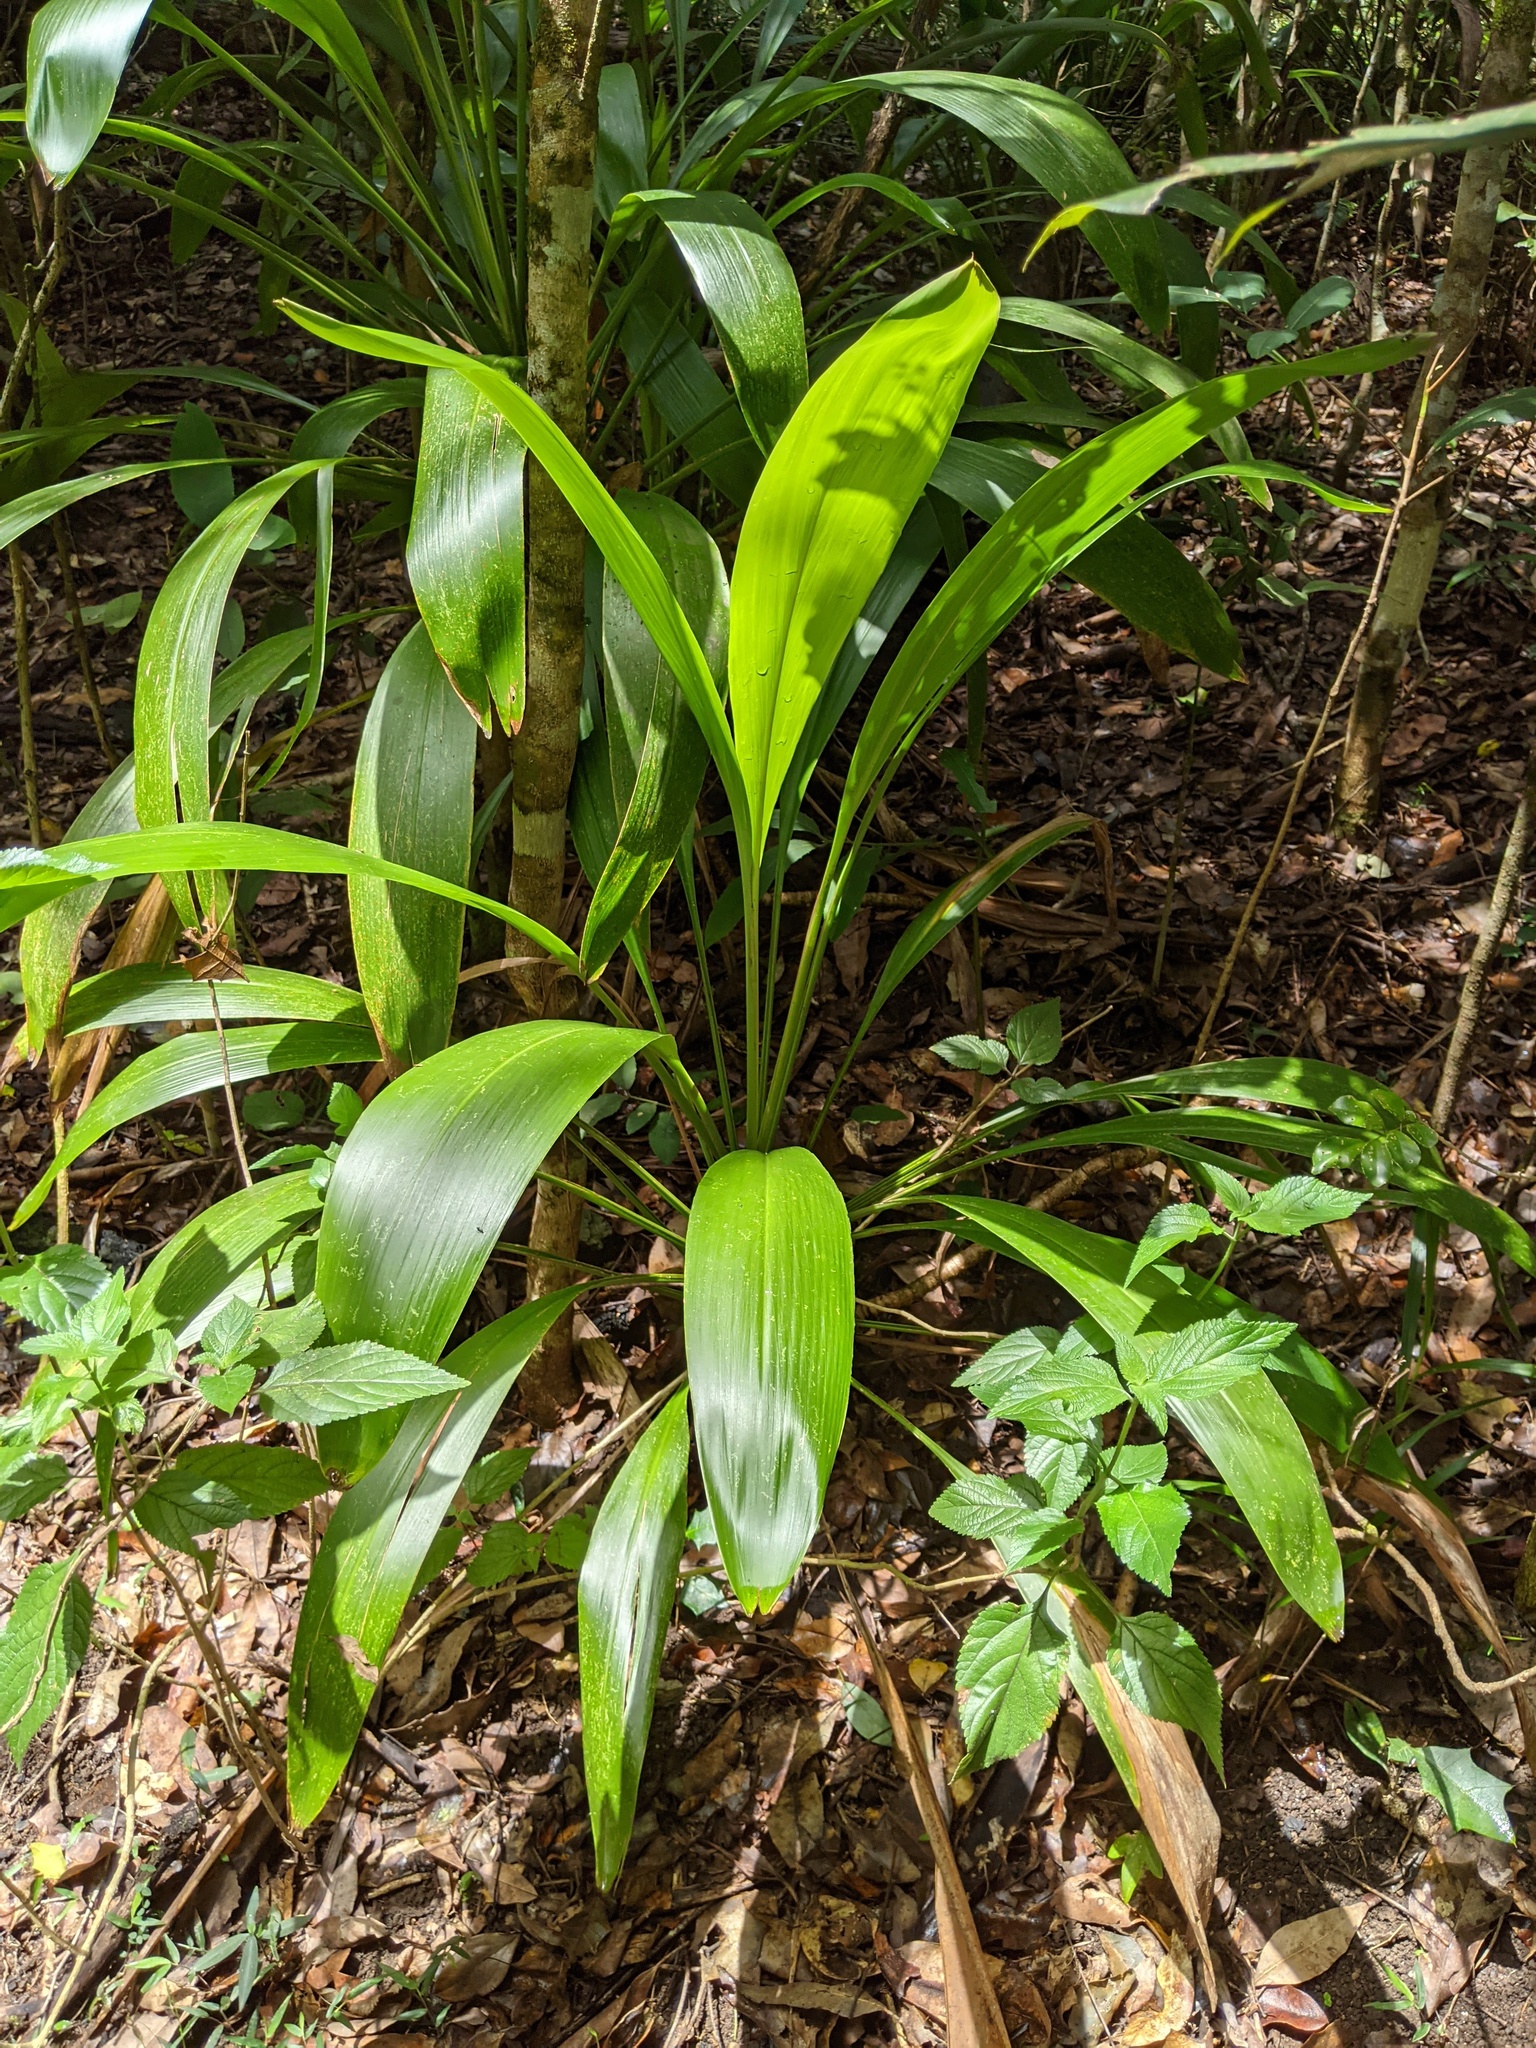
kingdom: Plantae
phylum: Tracheophyta
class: Liliopsida
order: Asparagales
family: Asparagaceae
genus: Cordyline
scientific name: Cordyline petiolaris
